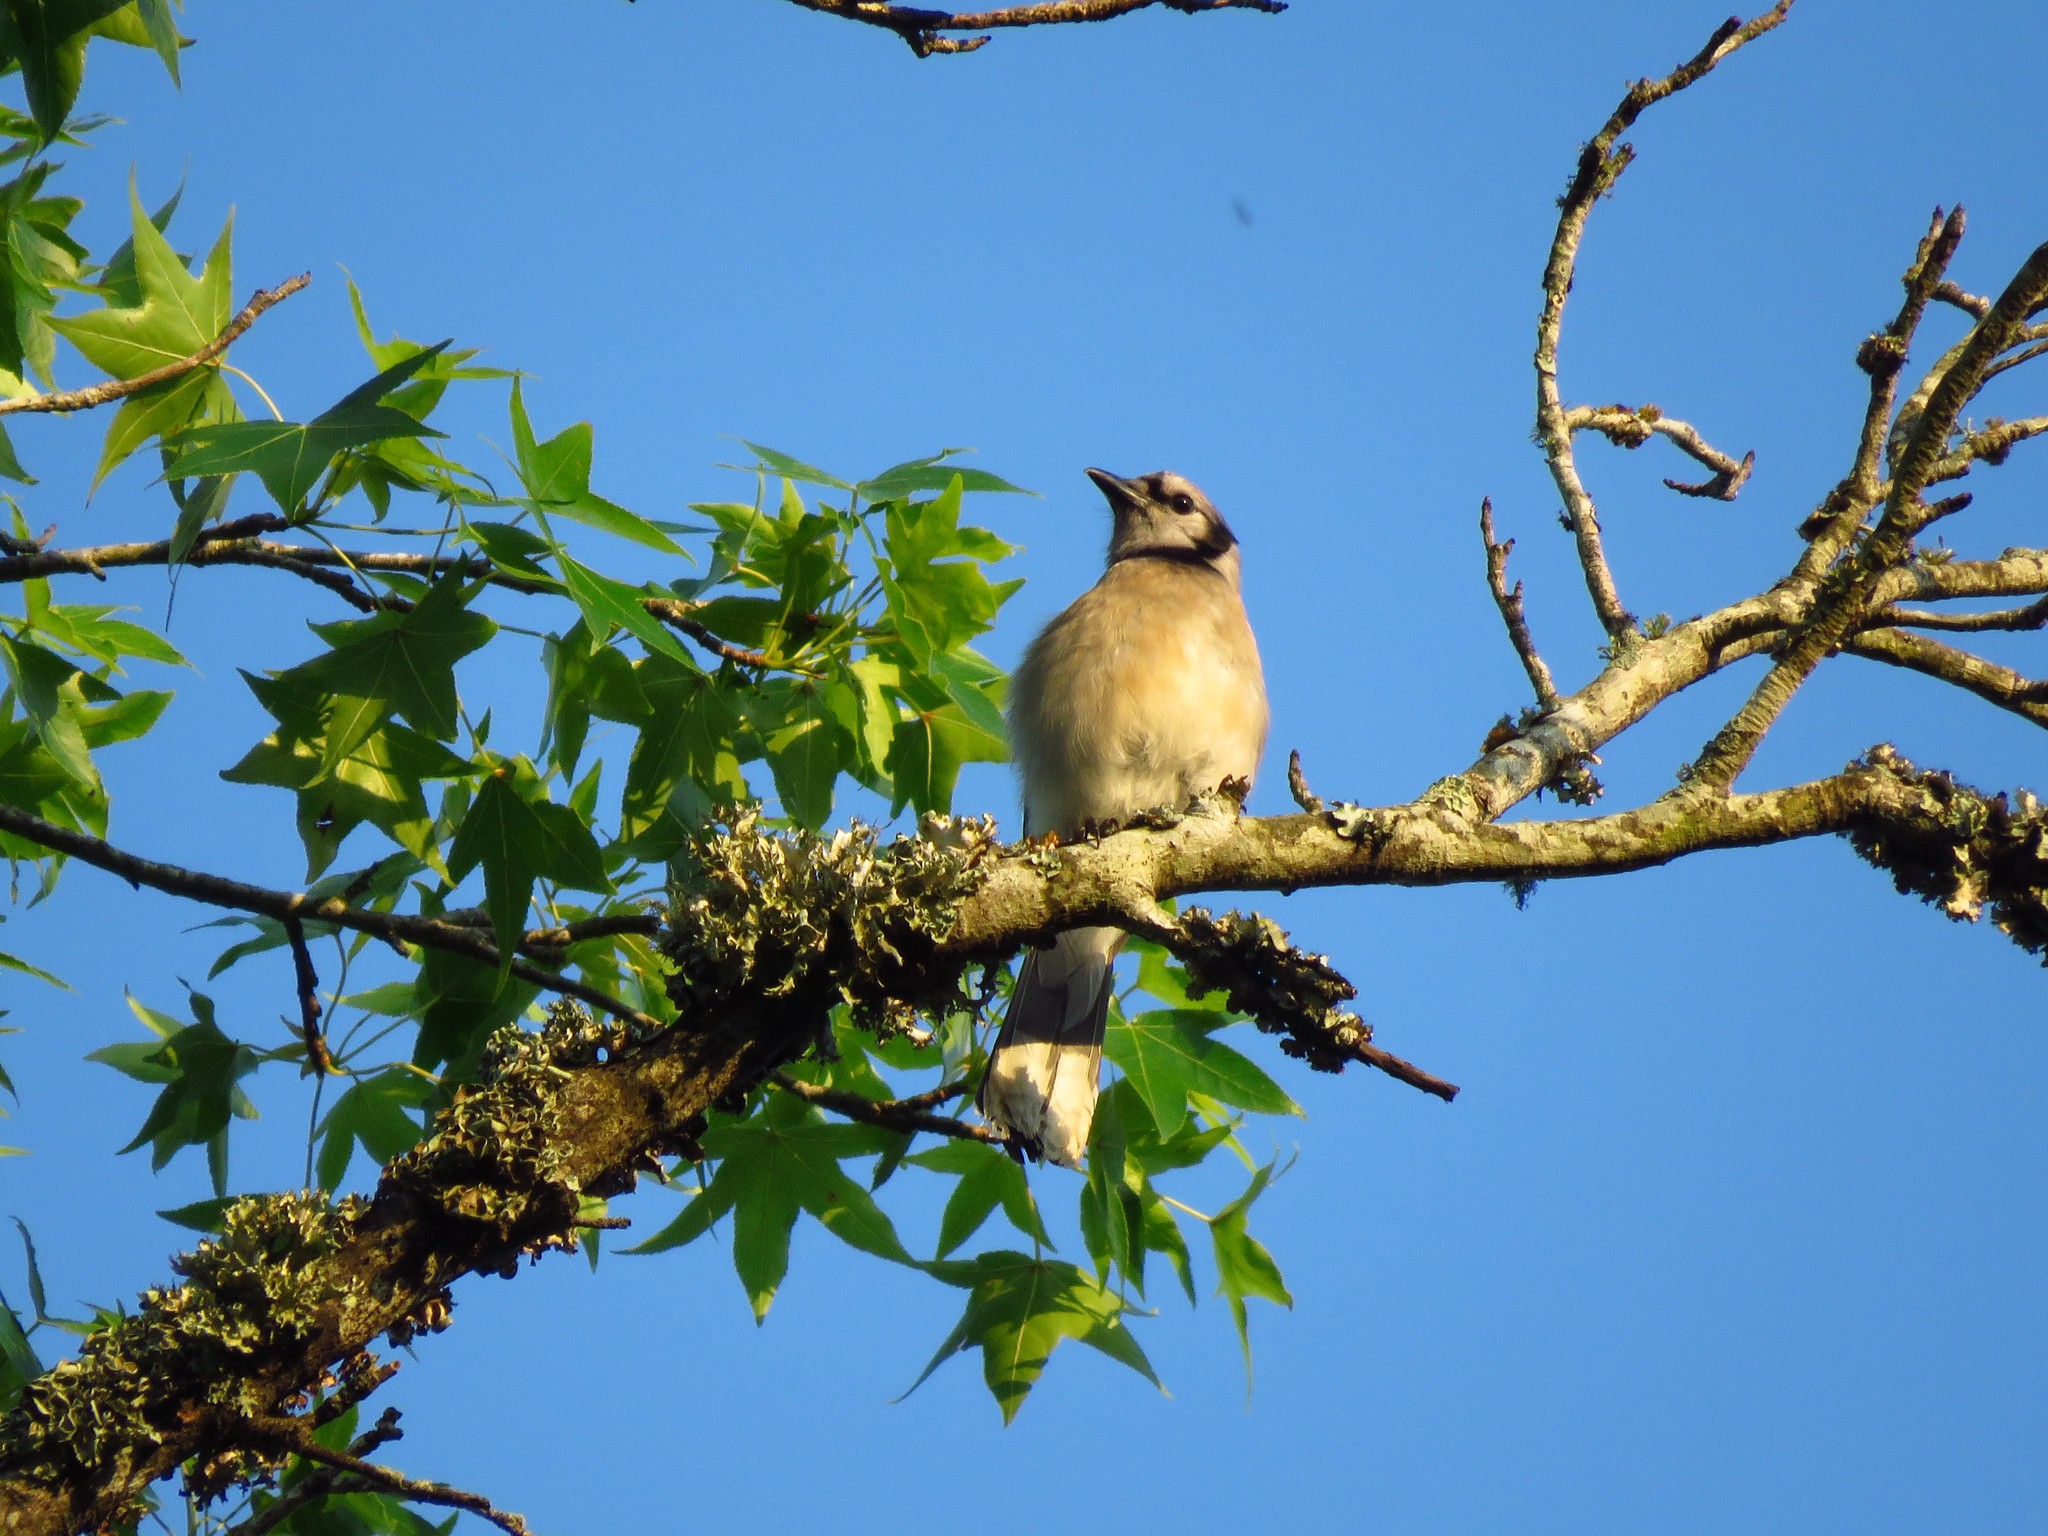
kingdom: Animalia
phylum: Chordata
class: Aves
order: Passeriformes
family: Corvidae
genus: Cyanocitta
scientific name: Cyanocitta cristata
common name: Blue jay
